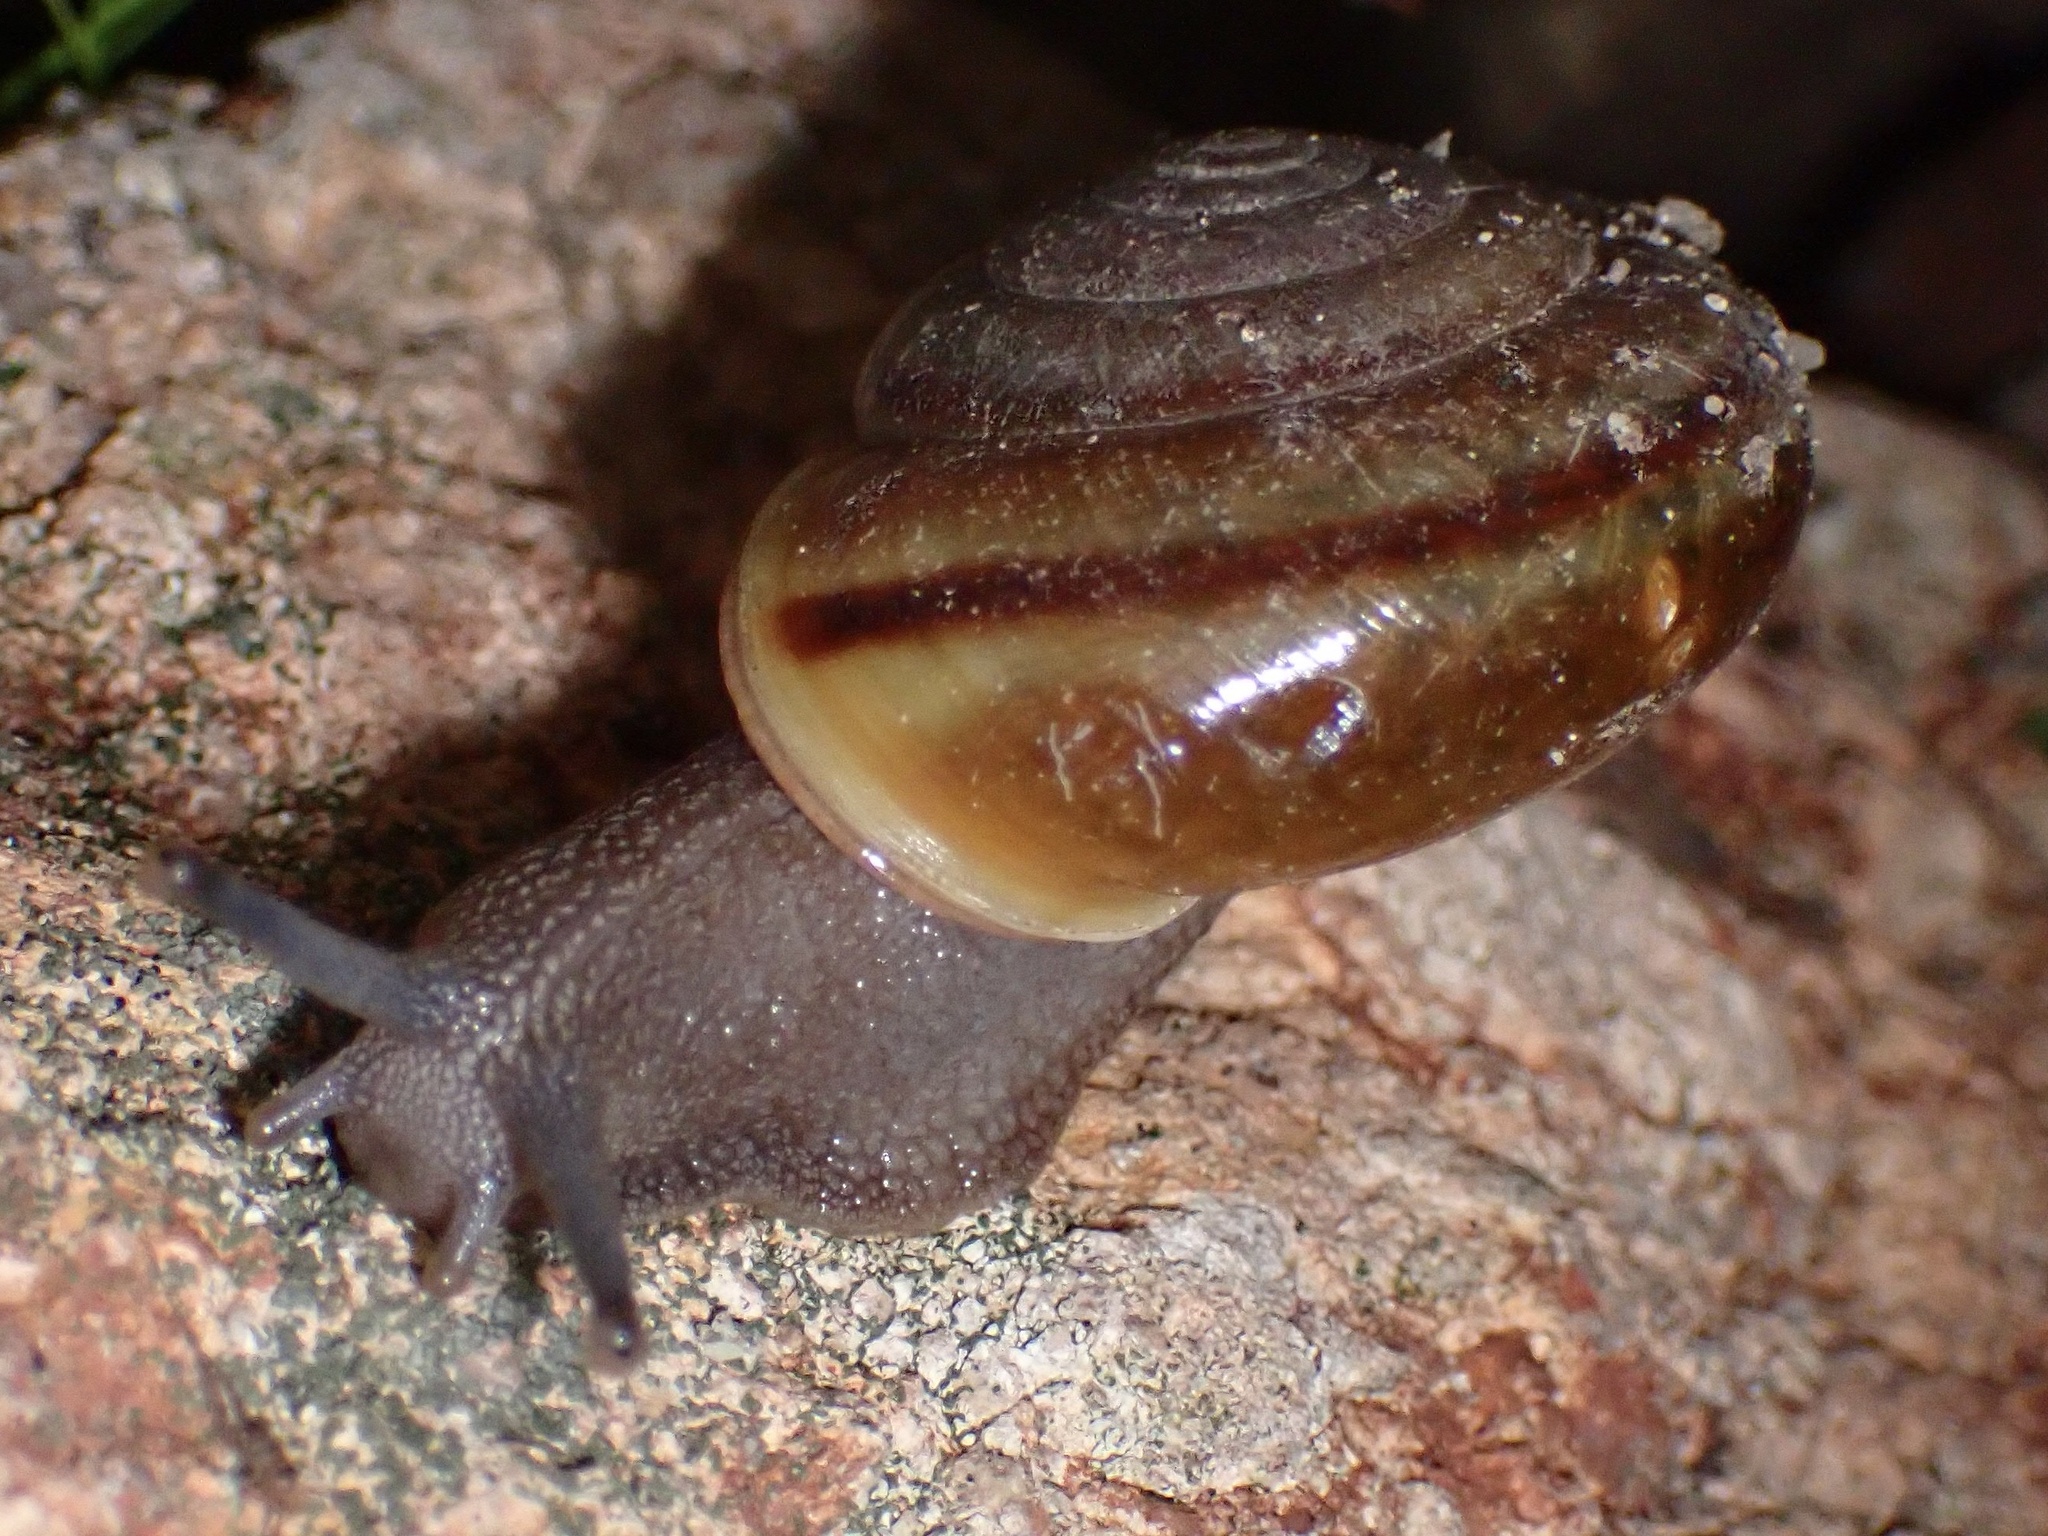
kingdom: Animalia
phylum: Mollusca
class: Gastropoda
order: Stylommatophora
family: Xanthonychidae
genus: Helminthoglypta
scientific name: Helminthoglypta benitoensis
